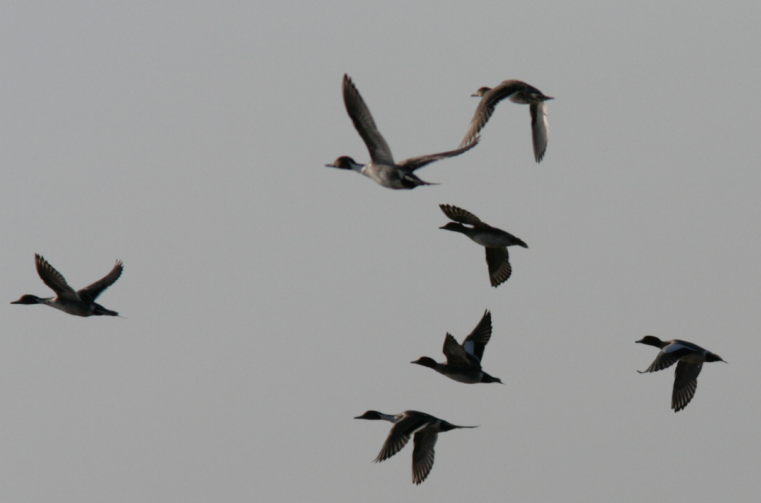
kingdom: Animalia
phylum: Chordata
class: Aves
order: Anseriformes
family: Anatidae
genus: Anas
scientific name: Anas acuta
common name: Northern pintail
